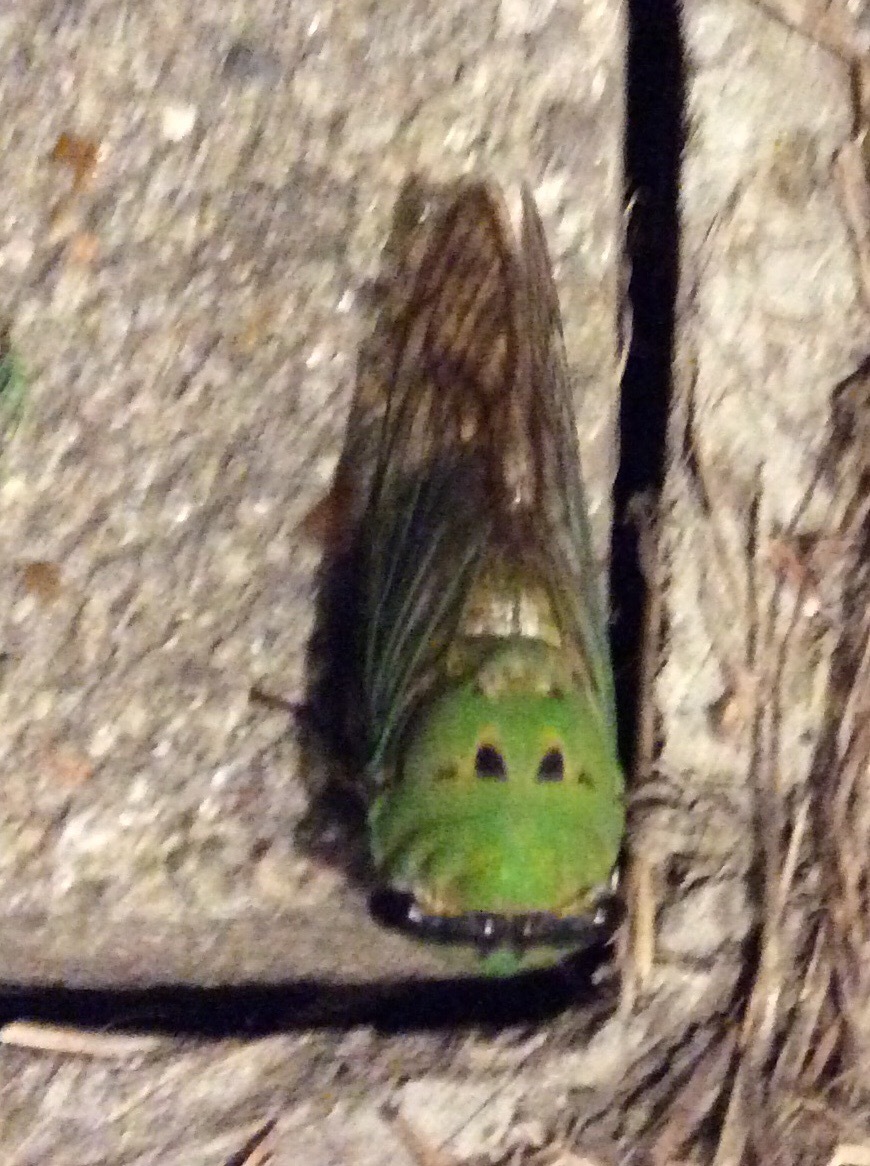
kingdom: Animalia
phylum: Arthropoda
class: Insecta
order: Hemiptera
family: Cicadidae
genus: Neotibicen
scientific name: Neotibicen superbus
